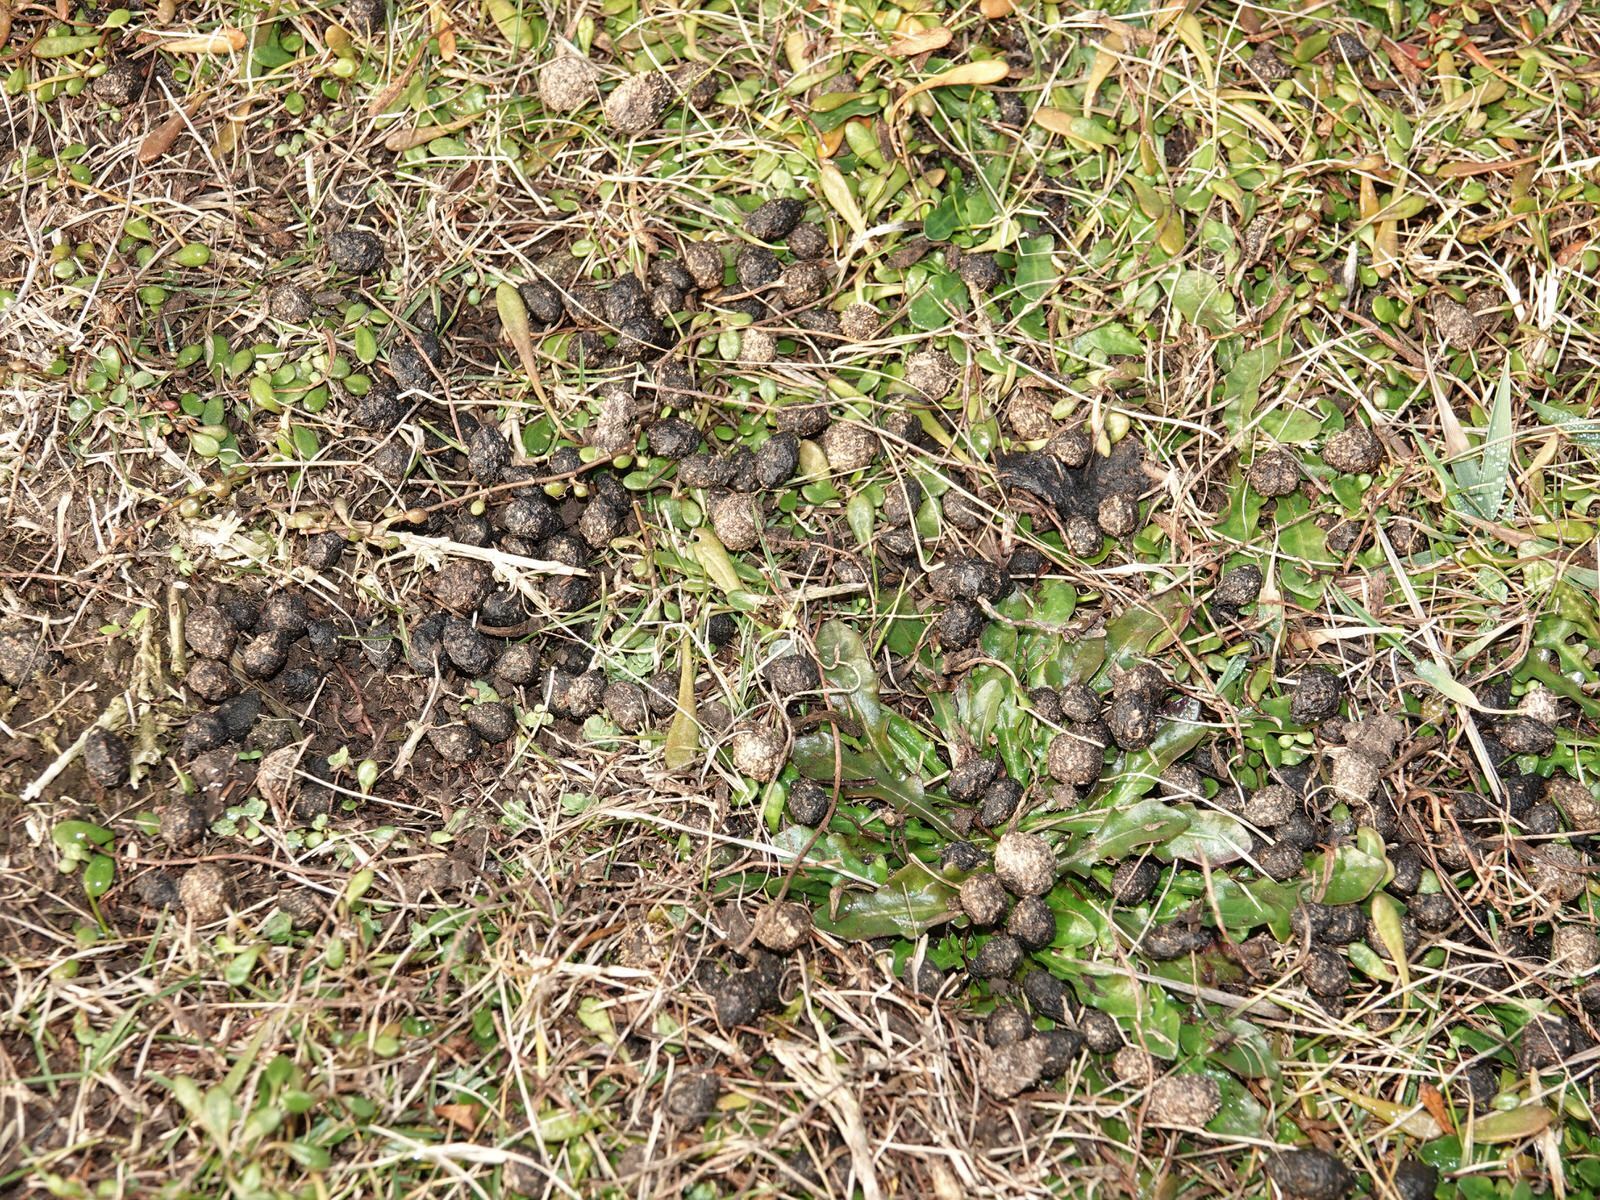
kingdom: Animalia
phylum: Chordata
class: Mammalia
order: Lagomorpha
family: Leporidae
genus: Oryctolagus
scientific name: Oryctolagus cuniculus
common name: European rabbit
